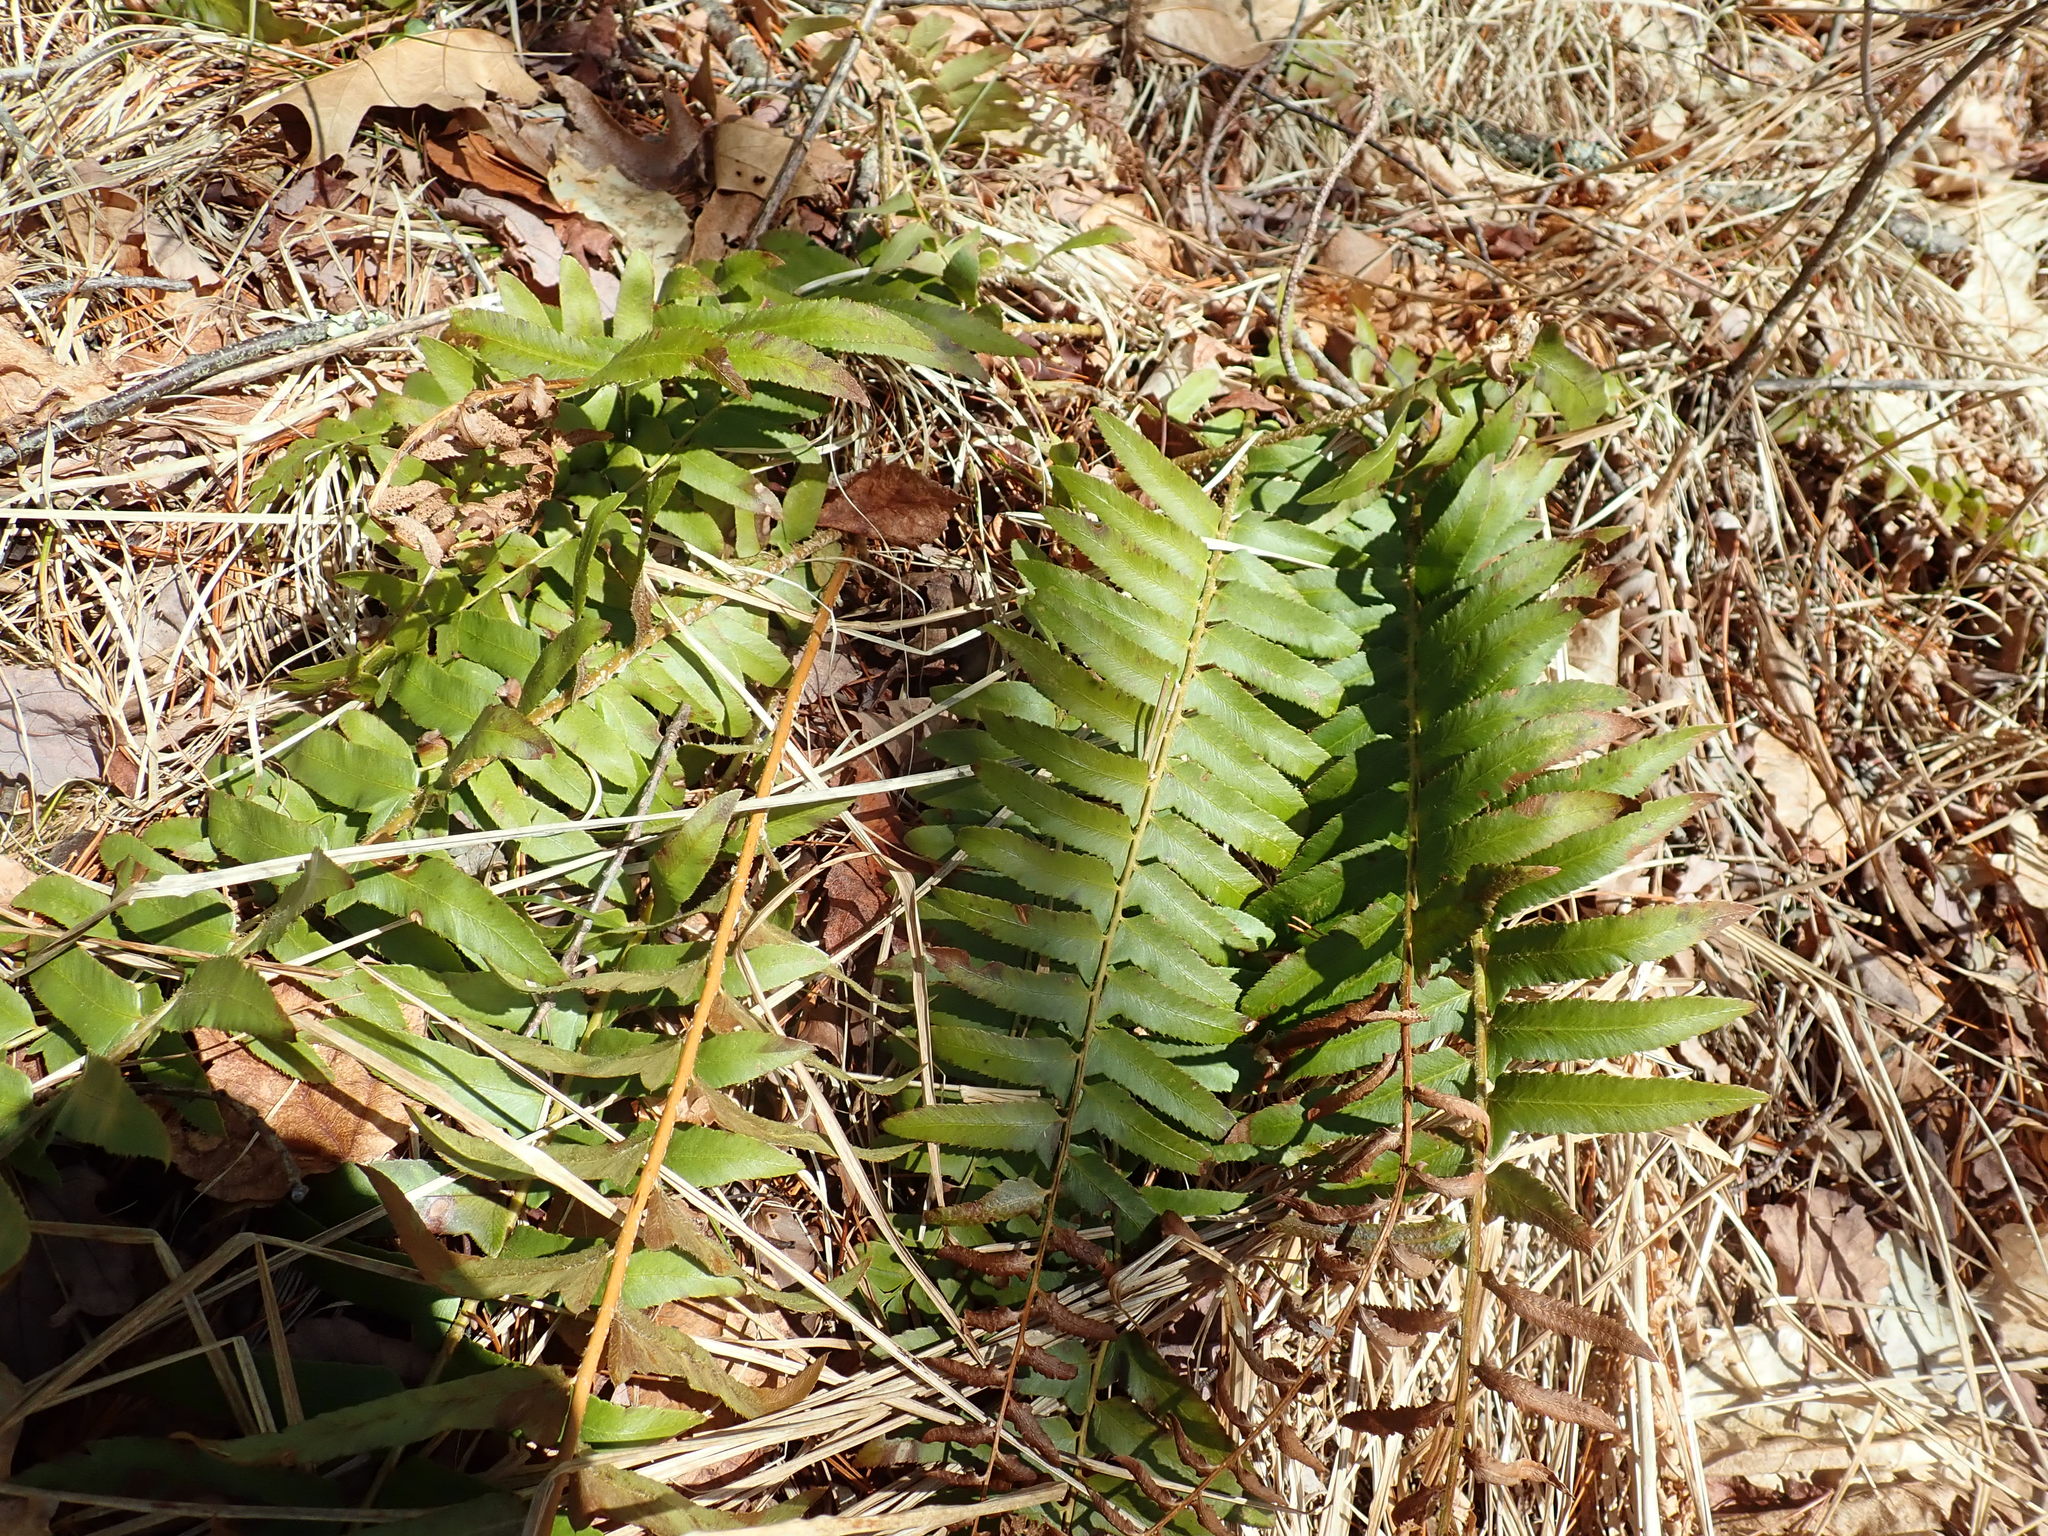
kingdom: Plantae
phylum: Tracheophyta
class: Polypodiopsida
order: Polypodiales
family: Dryopteridaceae
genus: Polystichum
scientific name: Polystichum acrostichoides
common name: Christmas fern
